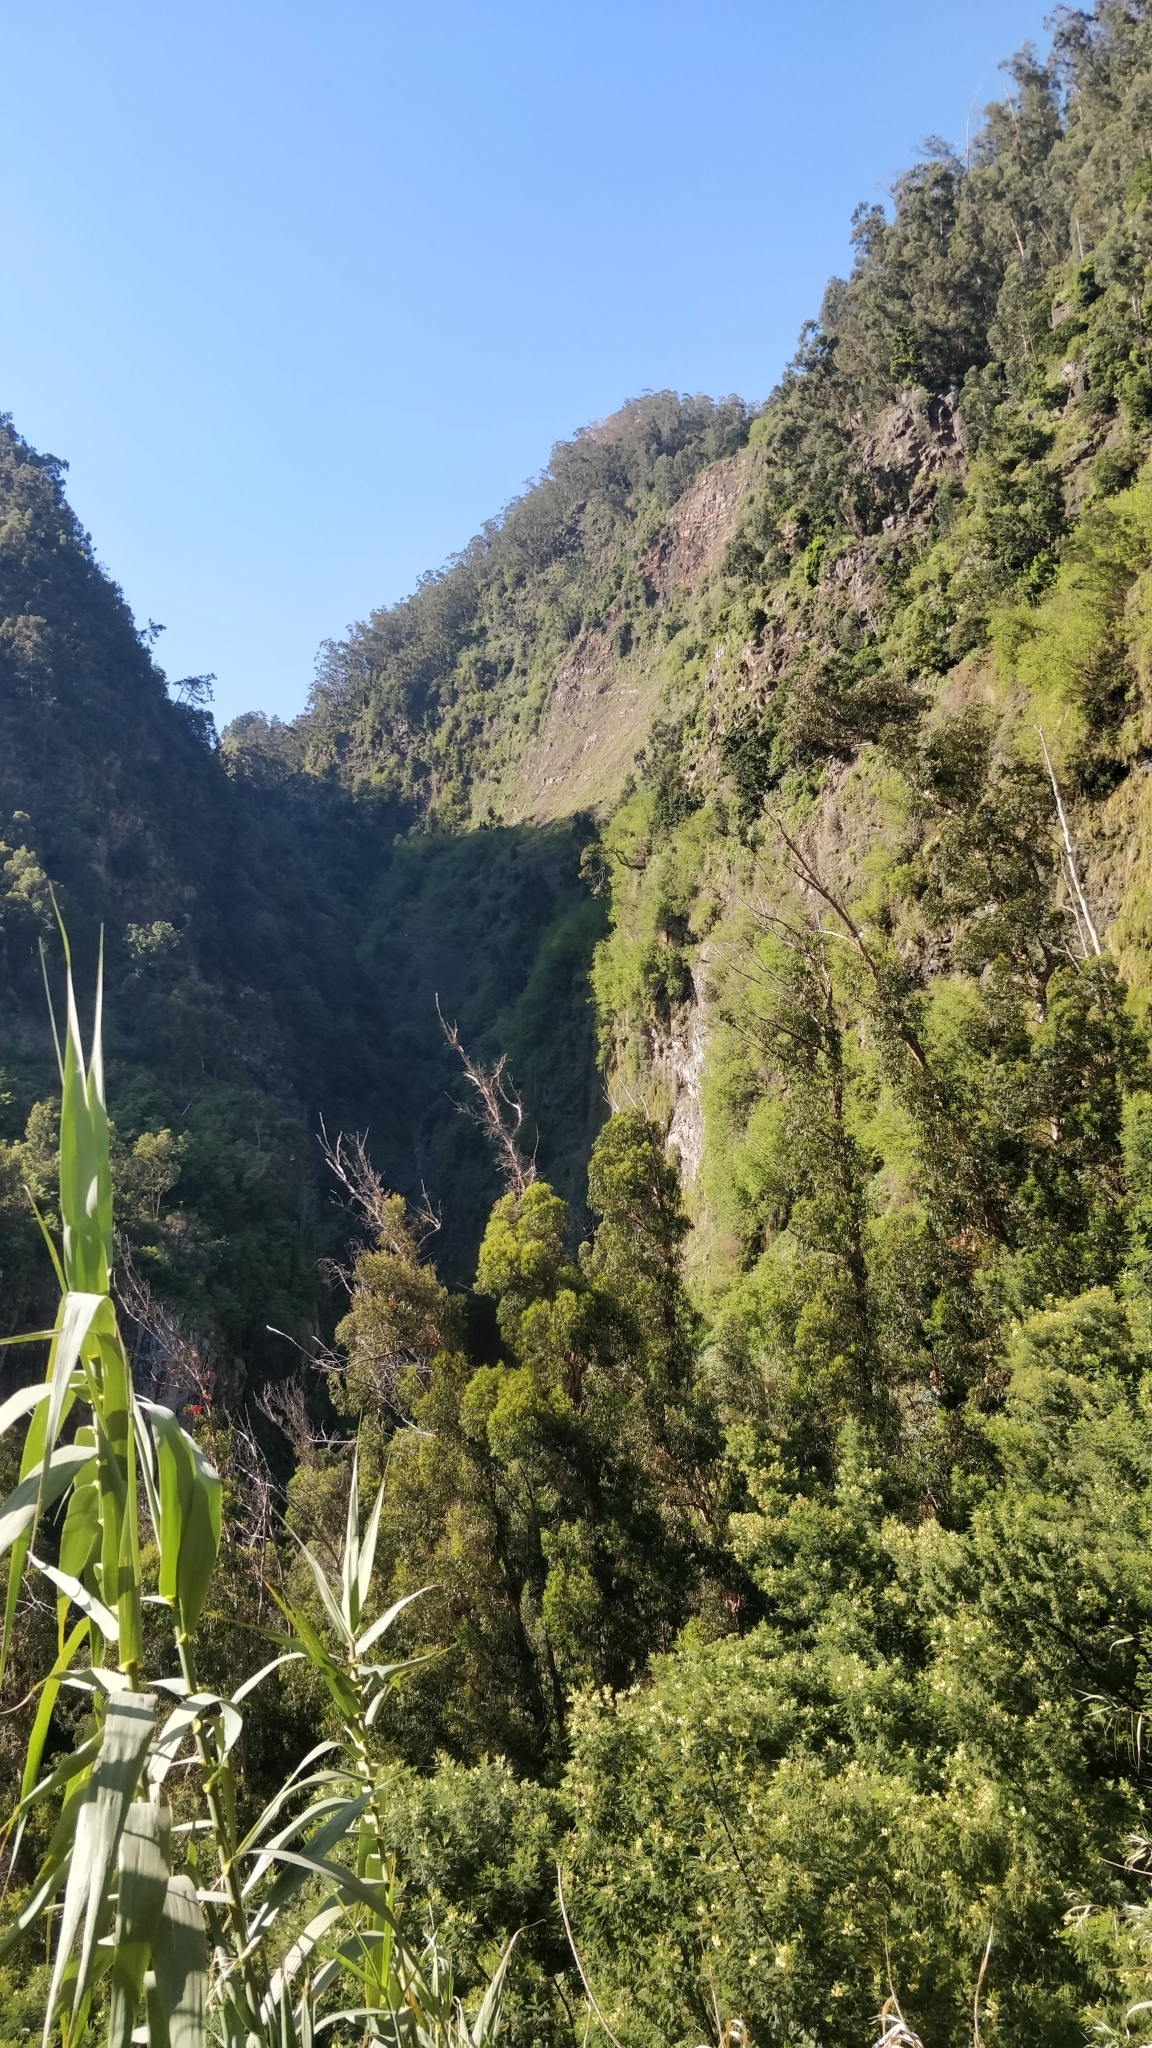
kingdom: Plantae
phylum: Tracheophyta
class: Magnoliopsida
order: Myrtales
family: Myrtaceae
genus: Eucalyptus
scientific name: Eucalyptus globulus
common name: Southern blue-gum
